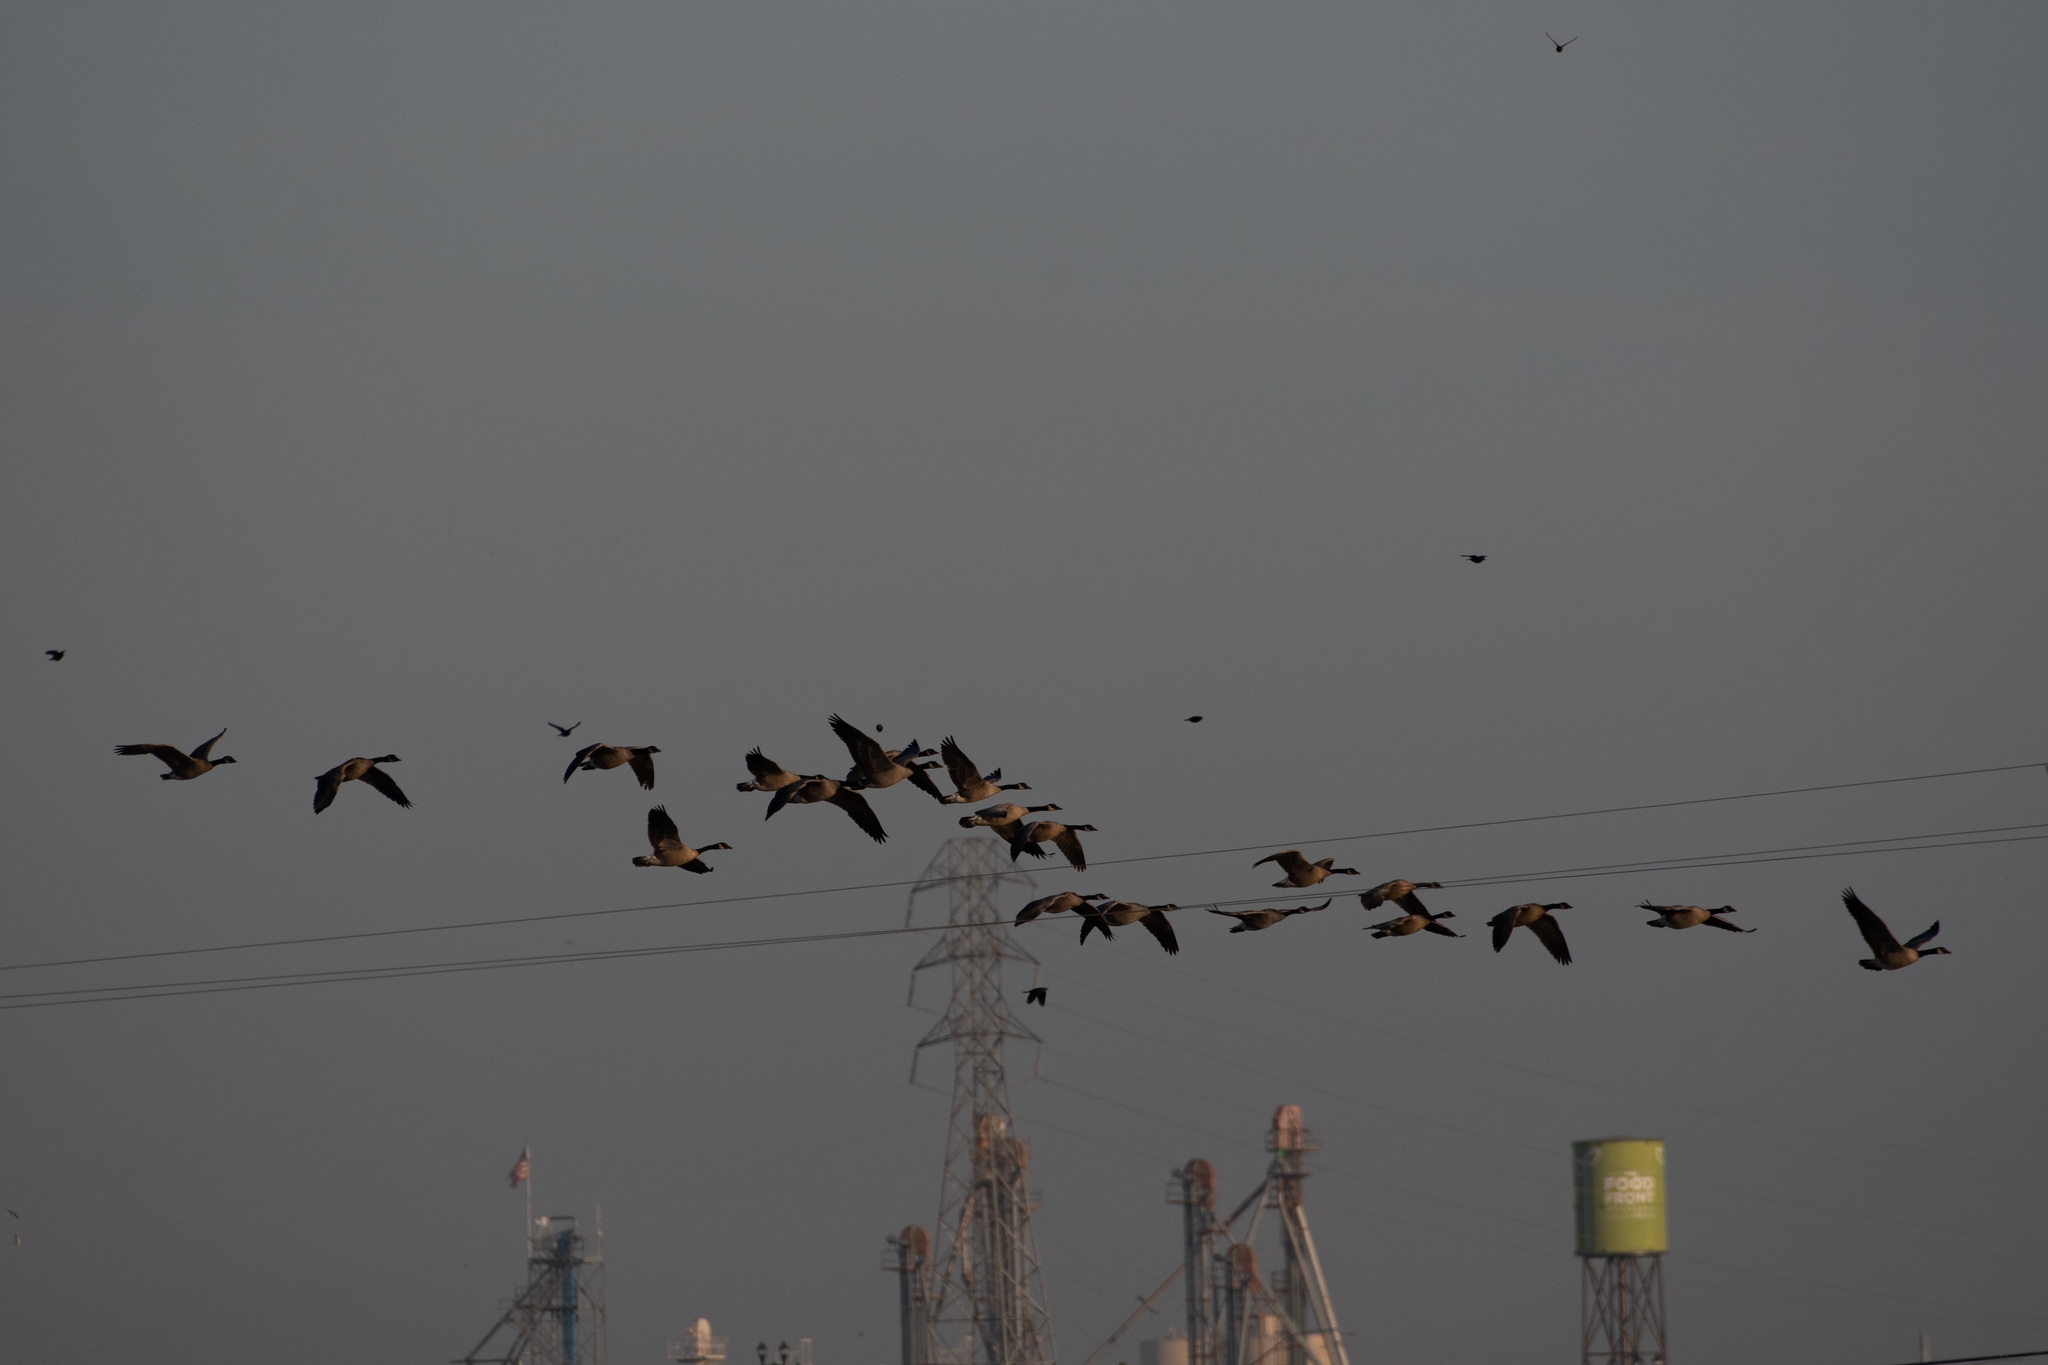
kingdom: Animalia
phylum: Chordata
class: Aves
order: Anseriformes
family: Anatidae
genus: Branta
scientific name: Branta canadensis
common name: Canada goose
